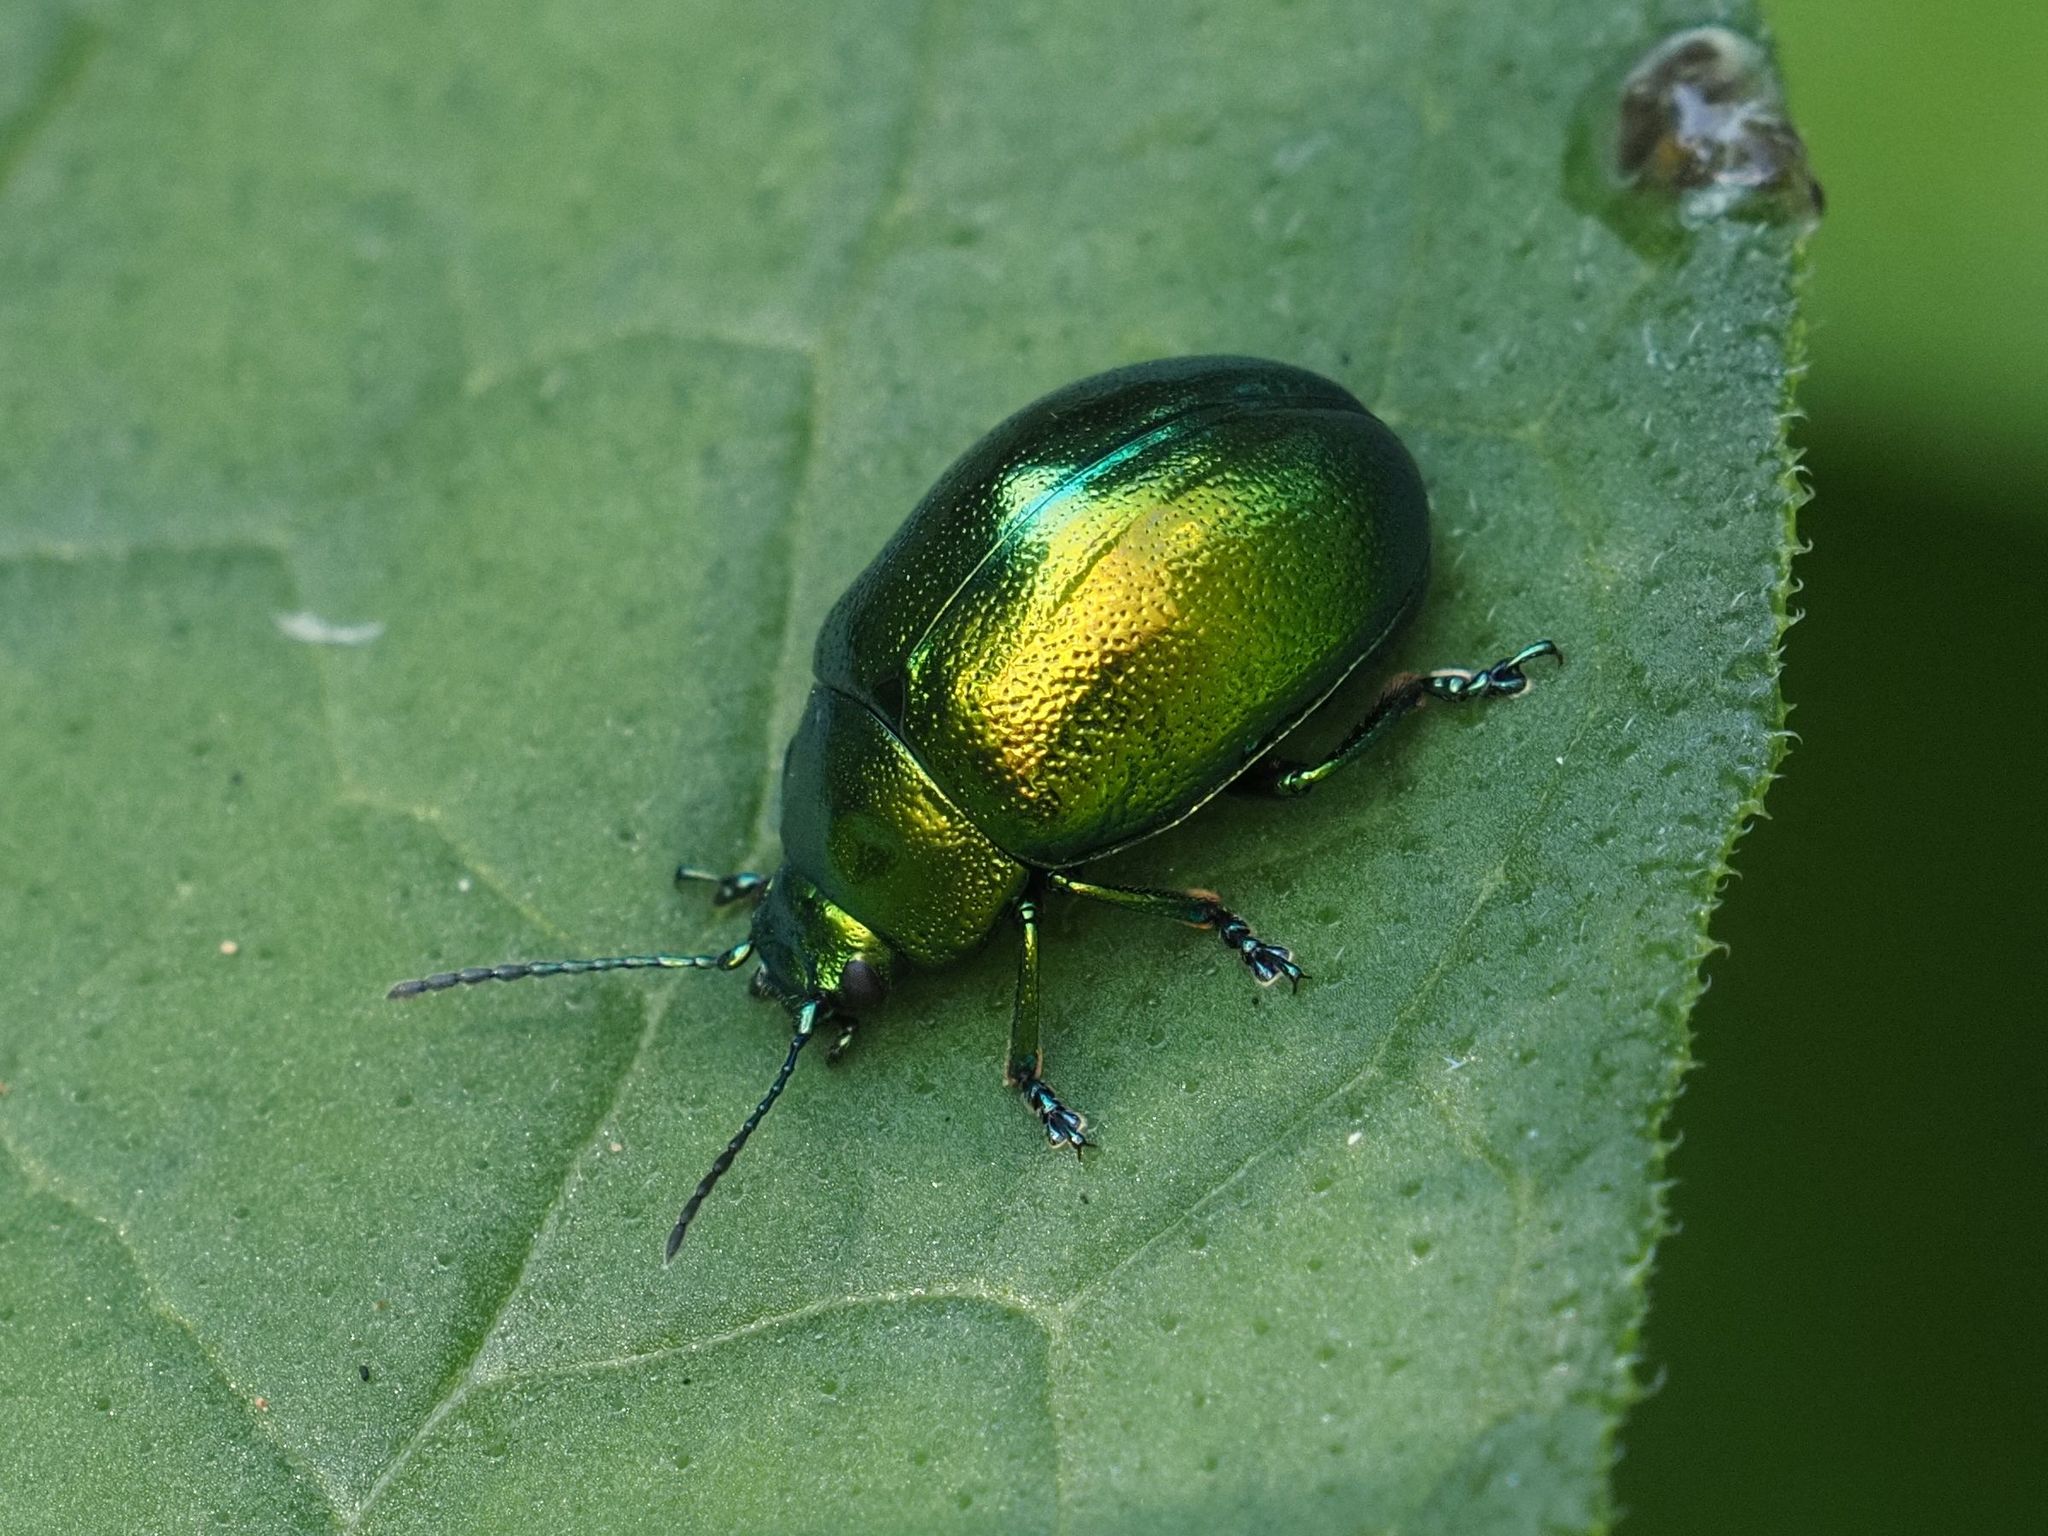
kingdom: Animalia
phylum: Arthropoda
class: Insecta
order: Coleoptera
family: Chrysomelidae
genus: Chrysolina
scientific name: Chrysolina herbacea
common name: Mint leaf beatle
